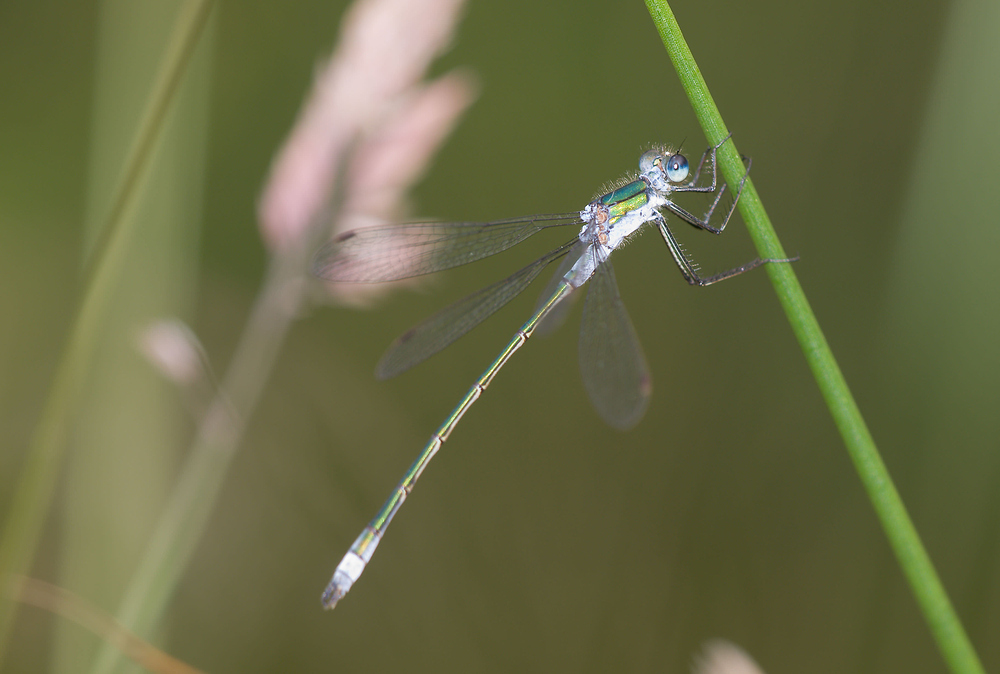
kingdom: Animalia
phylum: Arthropoda
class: Insecta
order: Odonata
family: Lestidae
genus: Lestes
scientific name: Lestes sponsa
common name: Common spreadwing
